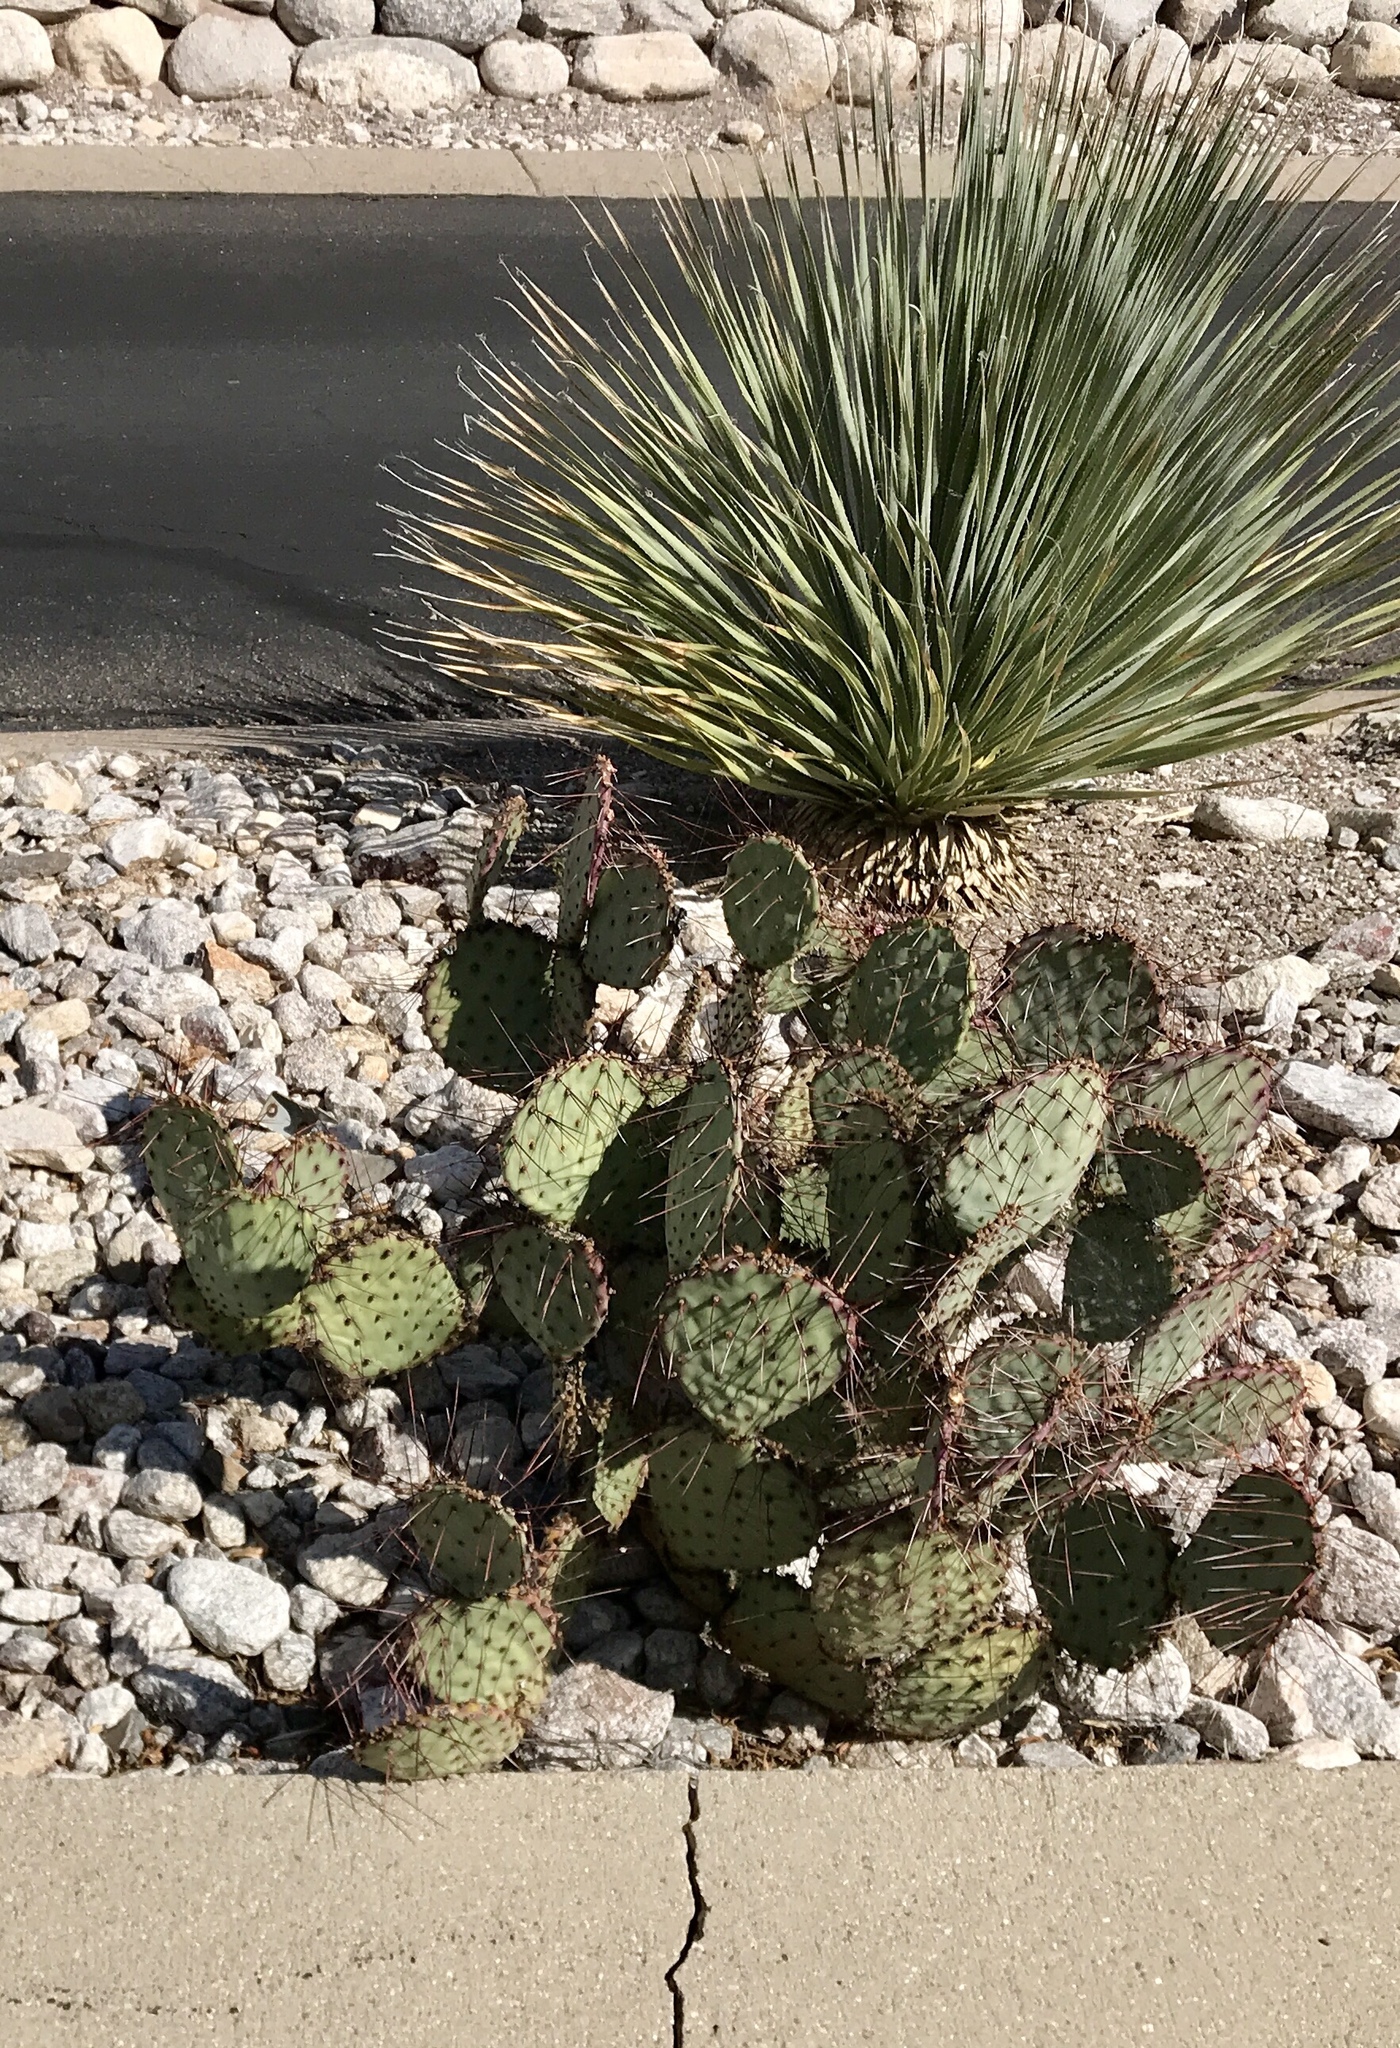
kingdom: Plantae
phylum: Tracheophyta
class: Magnoliopsida
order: Caryophyllales
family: Cactaceae
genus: Opuntia
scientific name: Opuntia macrocentra
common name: Purple prickly-pear
